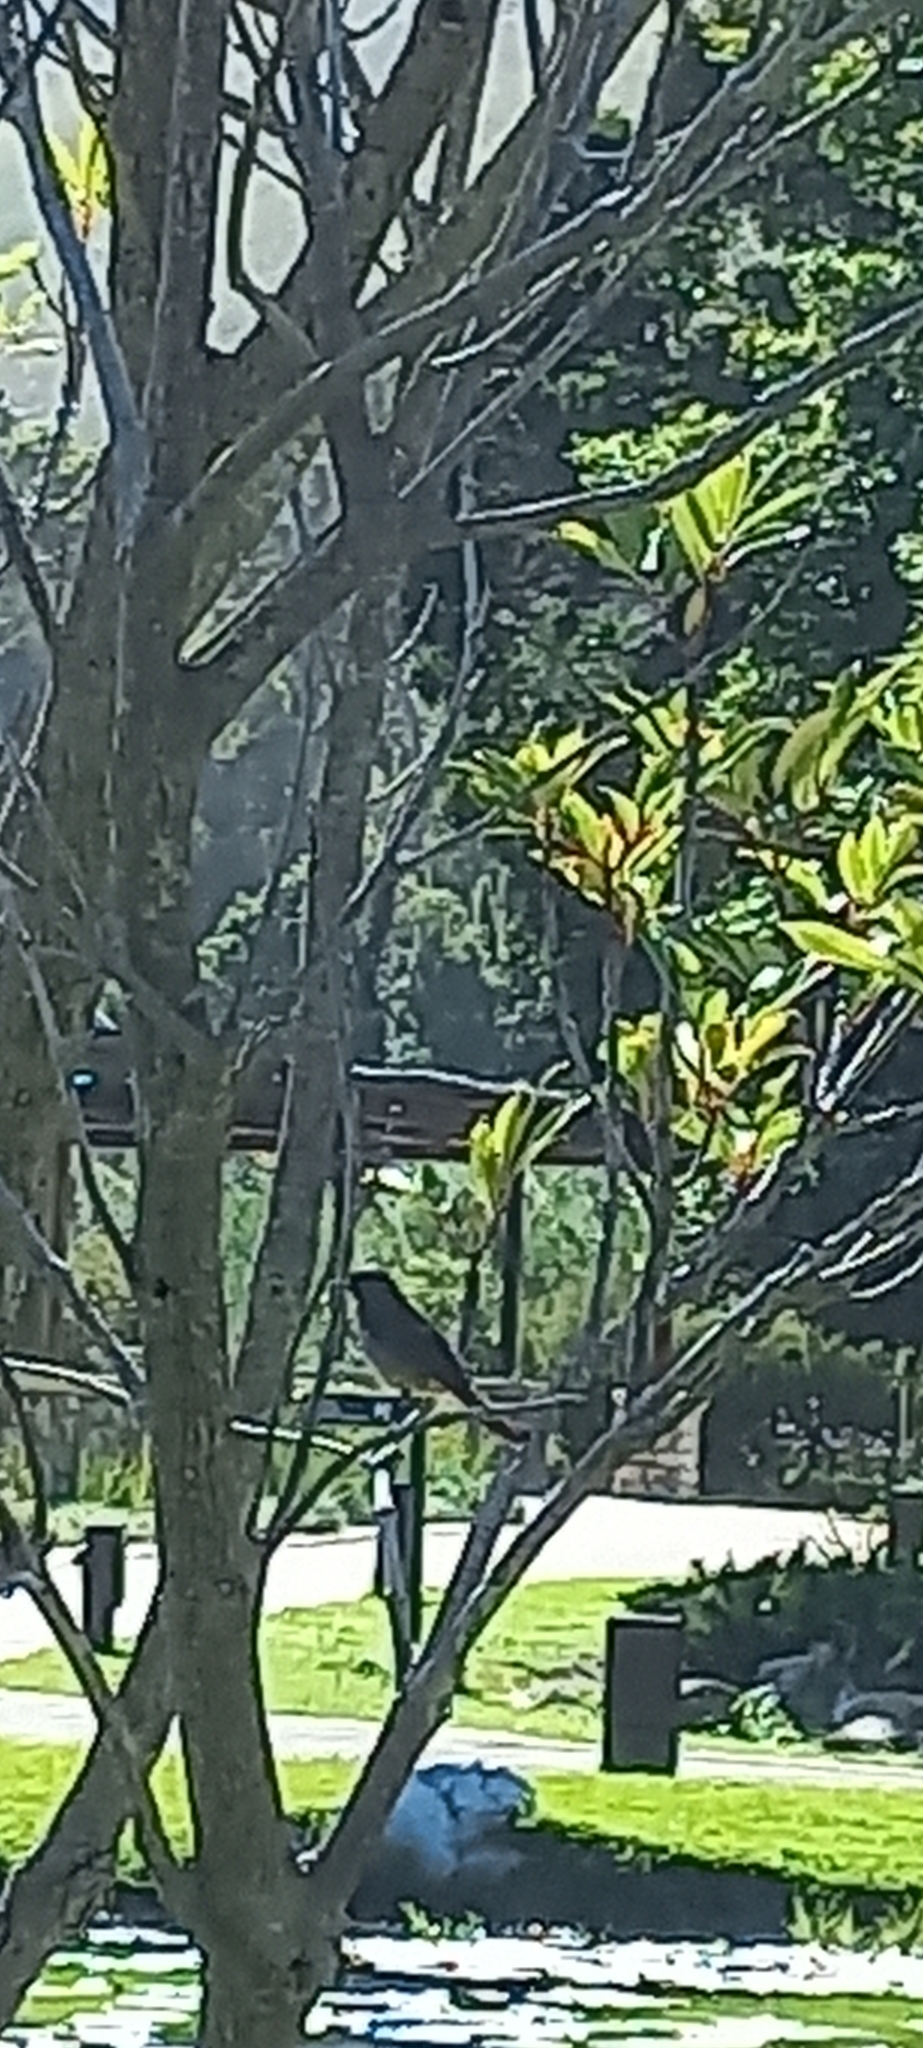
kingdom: Animalia
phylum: Chordata
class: Aves
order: Passeriformes
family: Pycnonotidae
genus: Pycnonotus
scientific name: Pycnonotus capensis
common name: Cape bulbul
